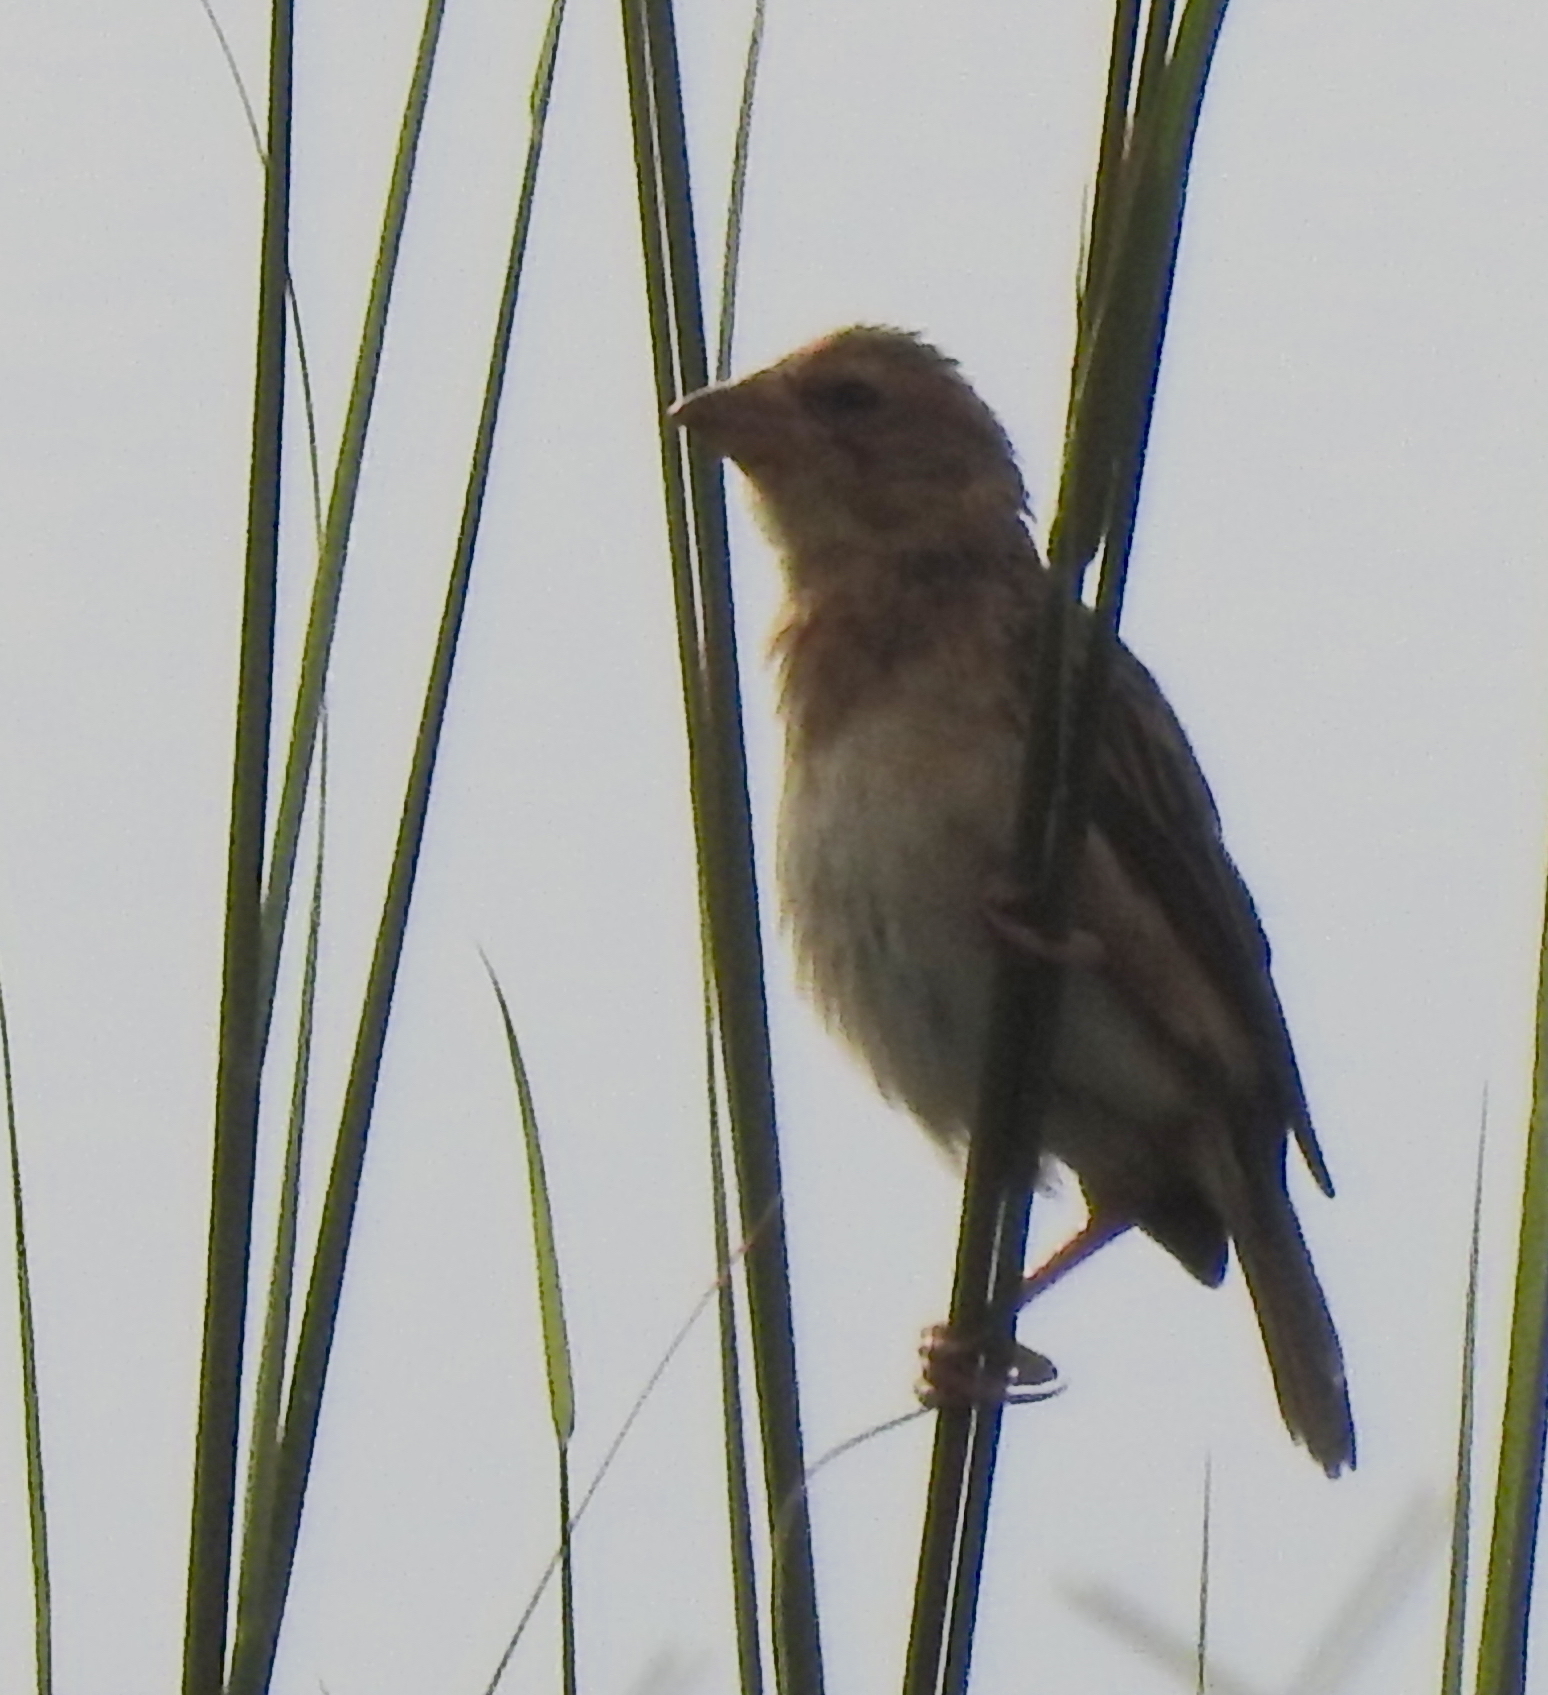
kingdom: Animalia
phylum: Chordata
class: Aves
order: Passeriformes
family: Ploceidae
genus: Ploceus
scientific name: Ploceus philippinus
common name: Baya weaver
